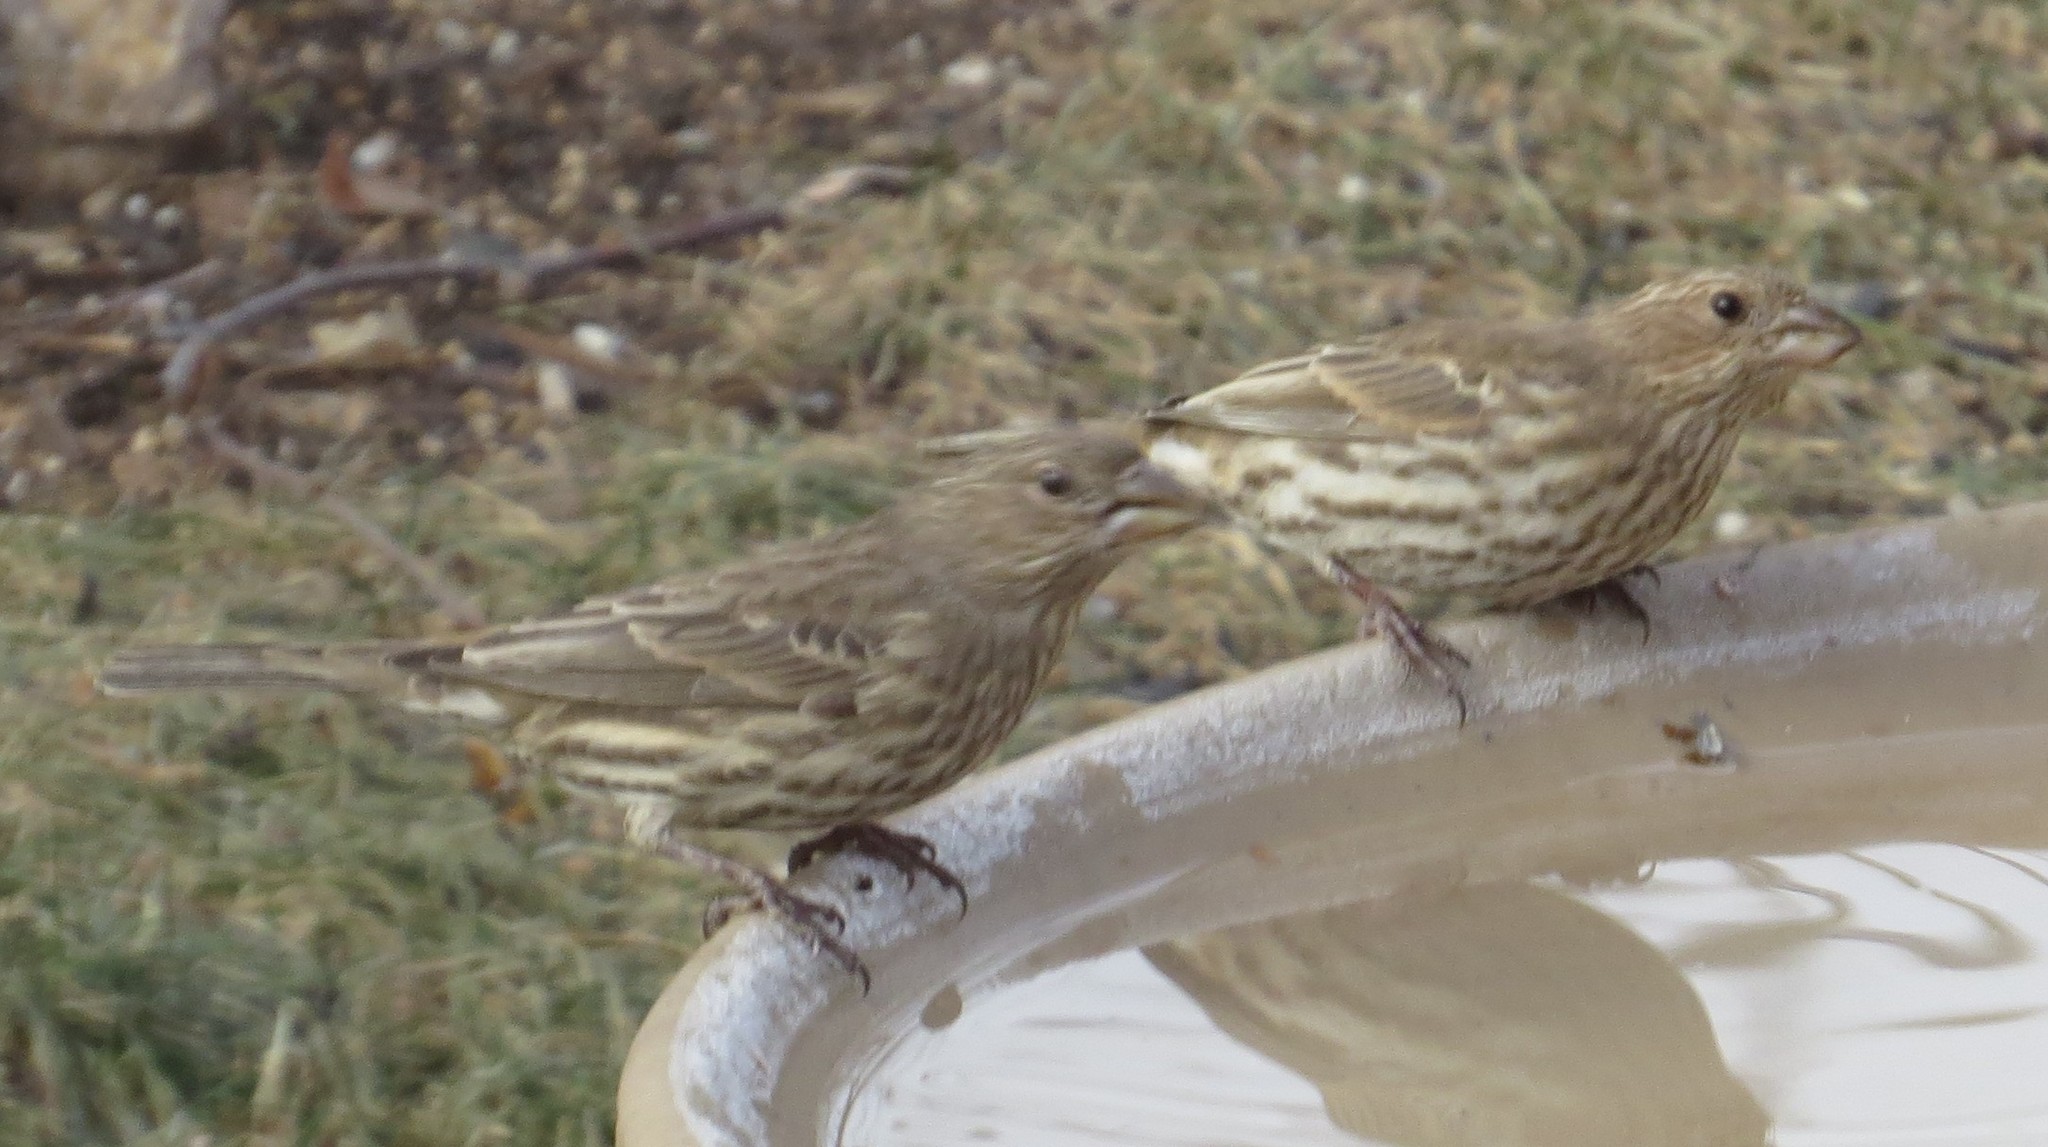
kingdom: Animalia
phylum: Chordata
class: Aves
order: Passeriformes
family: Fringillidae
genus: Haemorhous
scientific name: Haemorhous mexicanus
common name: House finch
